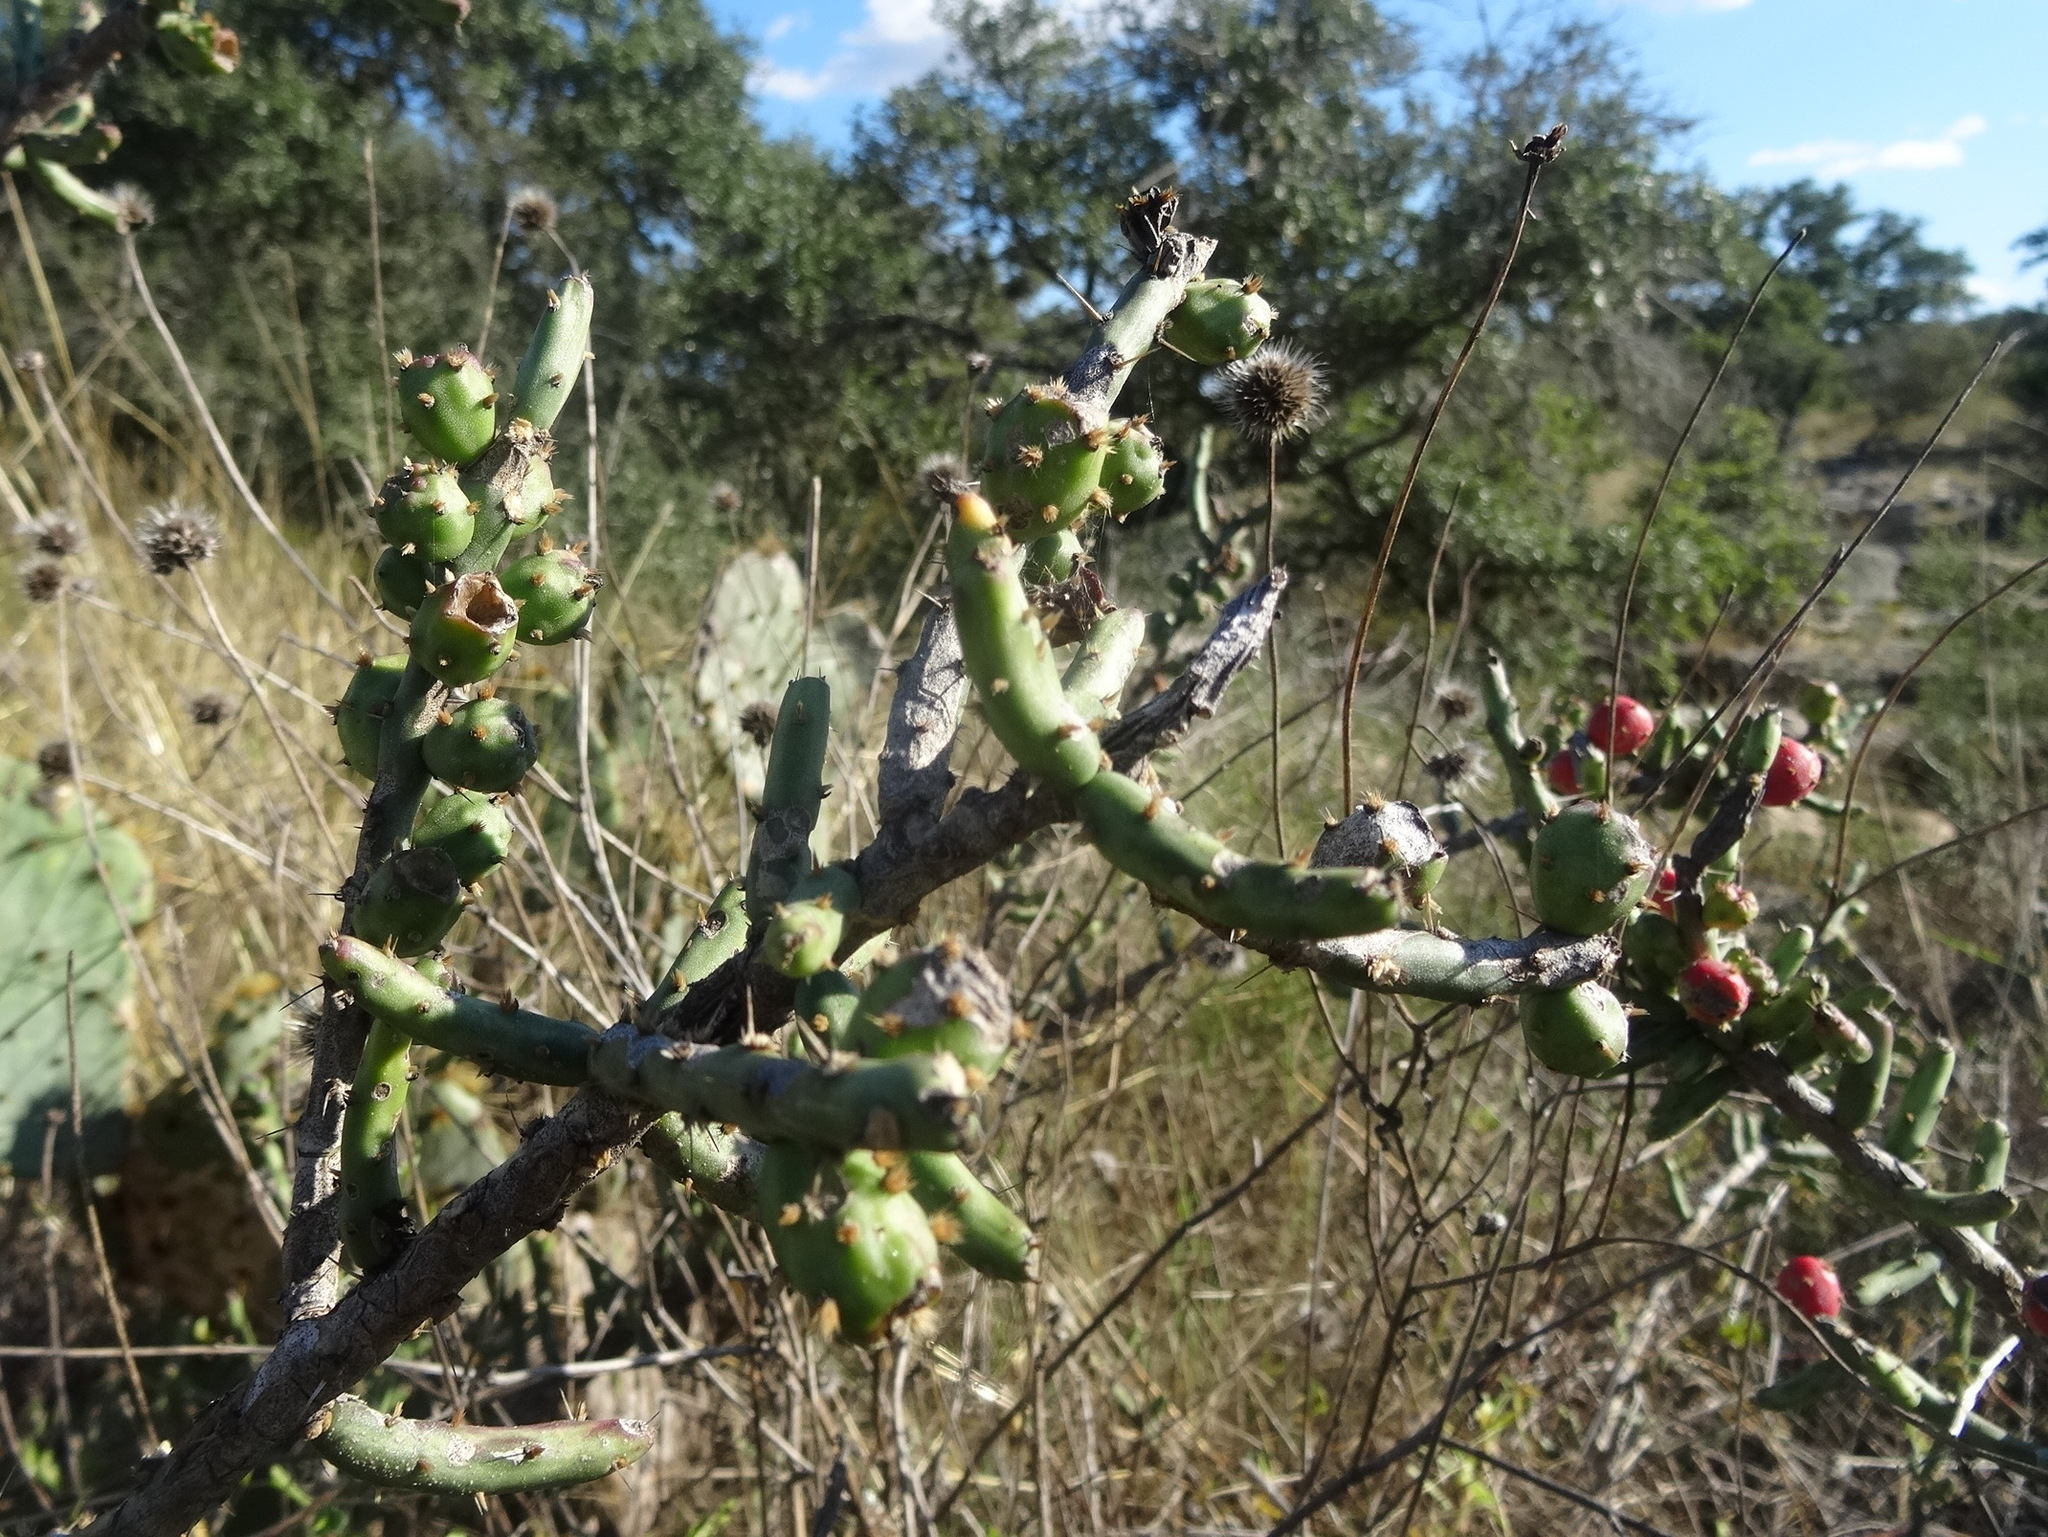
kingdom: Plantae
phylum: Tracheophyta
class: Magnoliopsida
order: Caryophyllales
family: Cactaceae
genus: Cylindropuntia
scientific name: Cylindropuntia leptocaulis
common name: Christmas cactus
